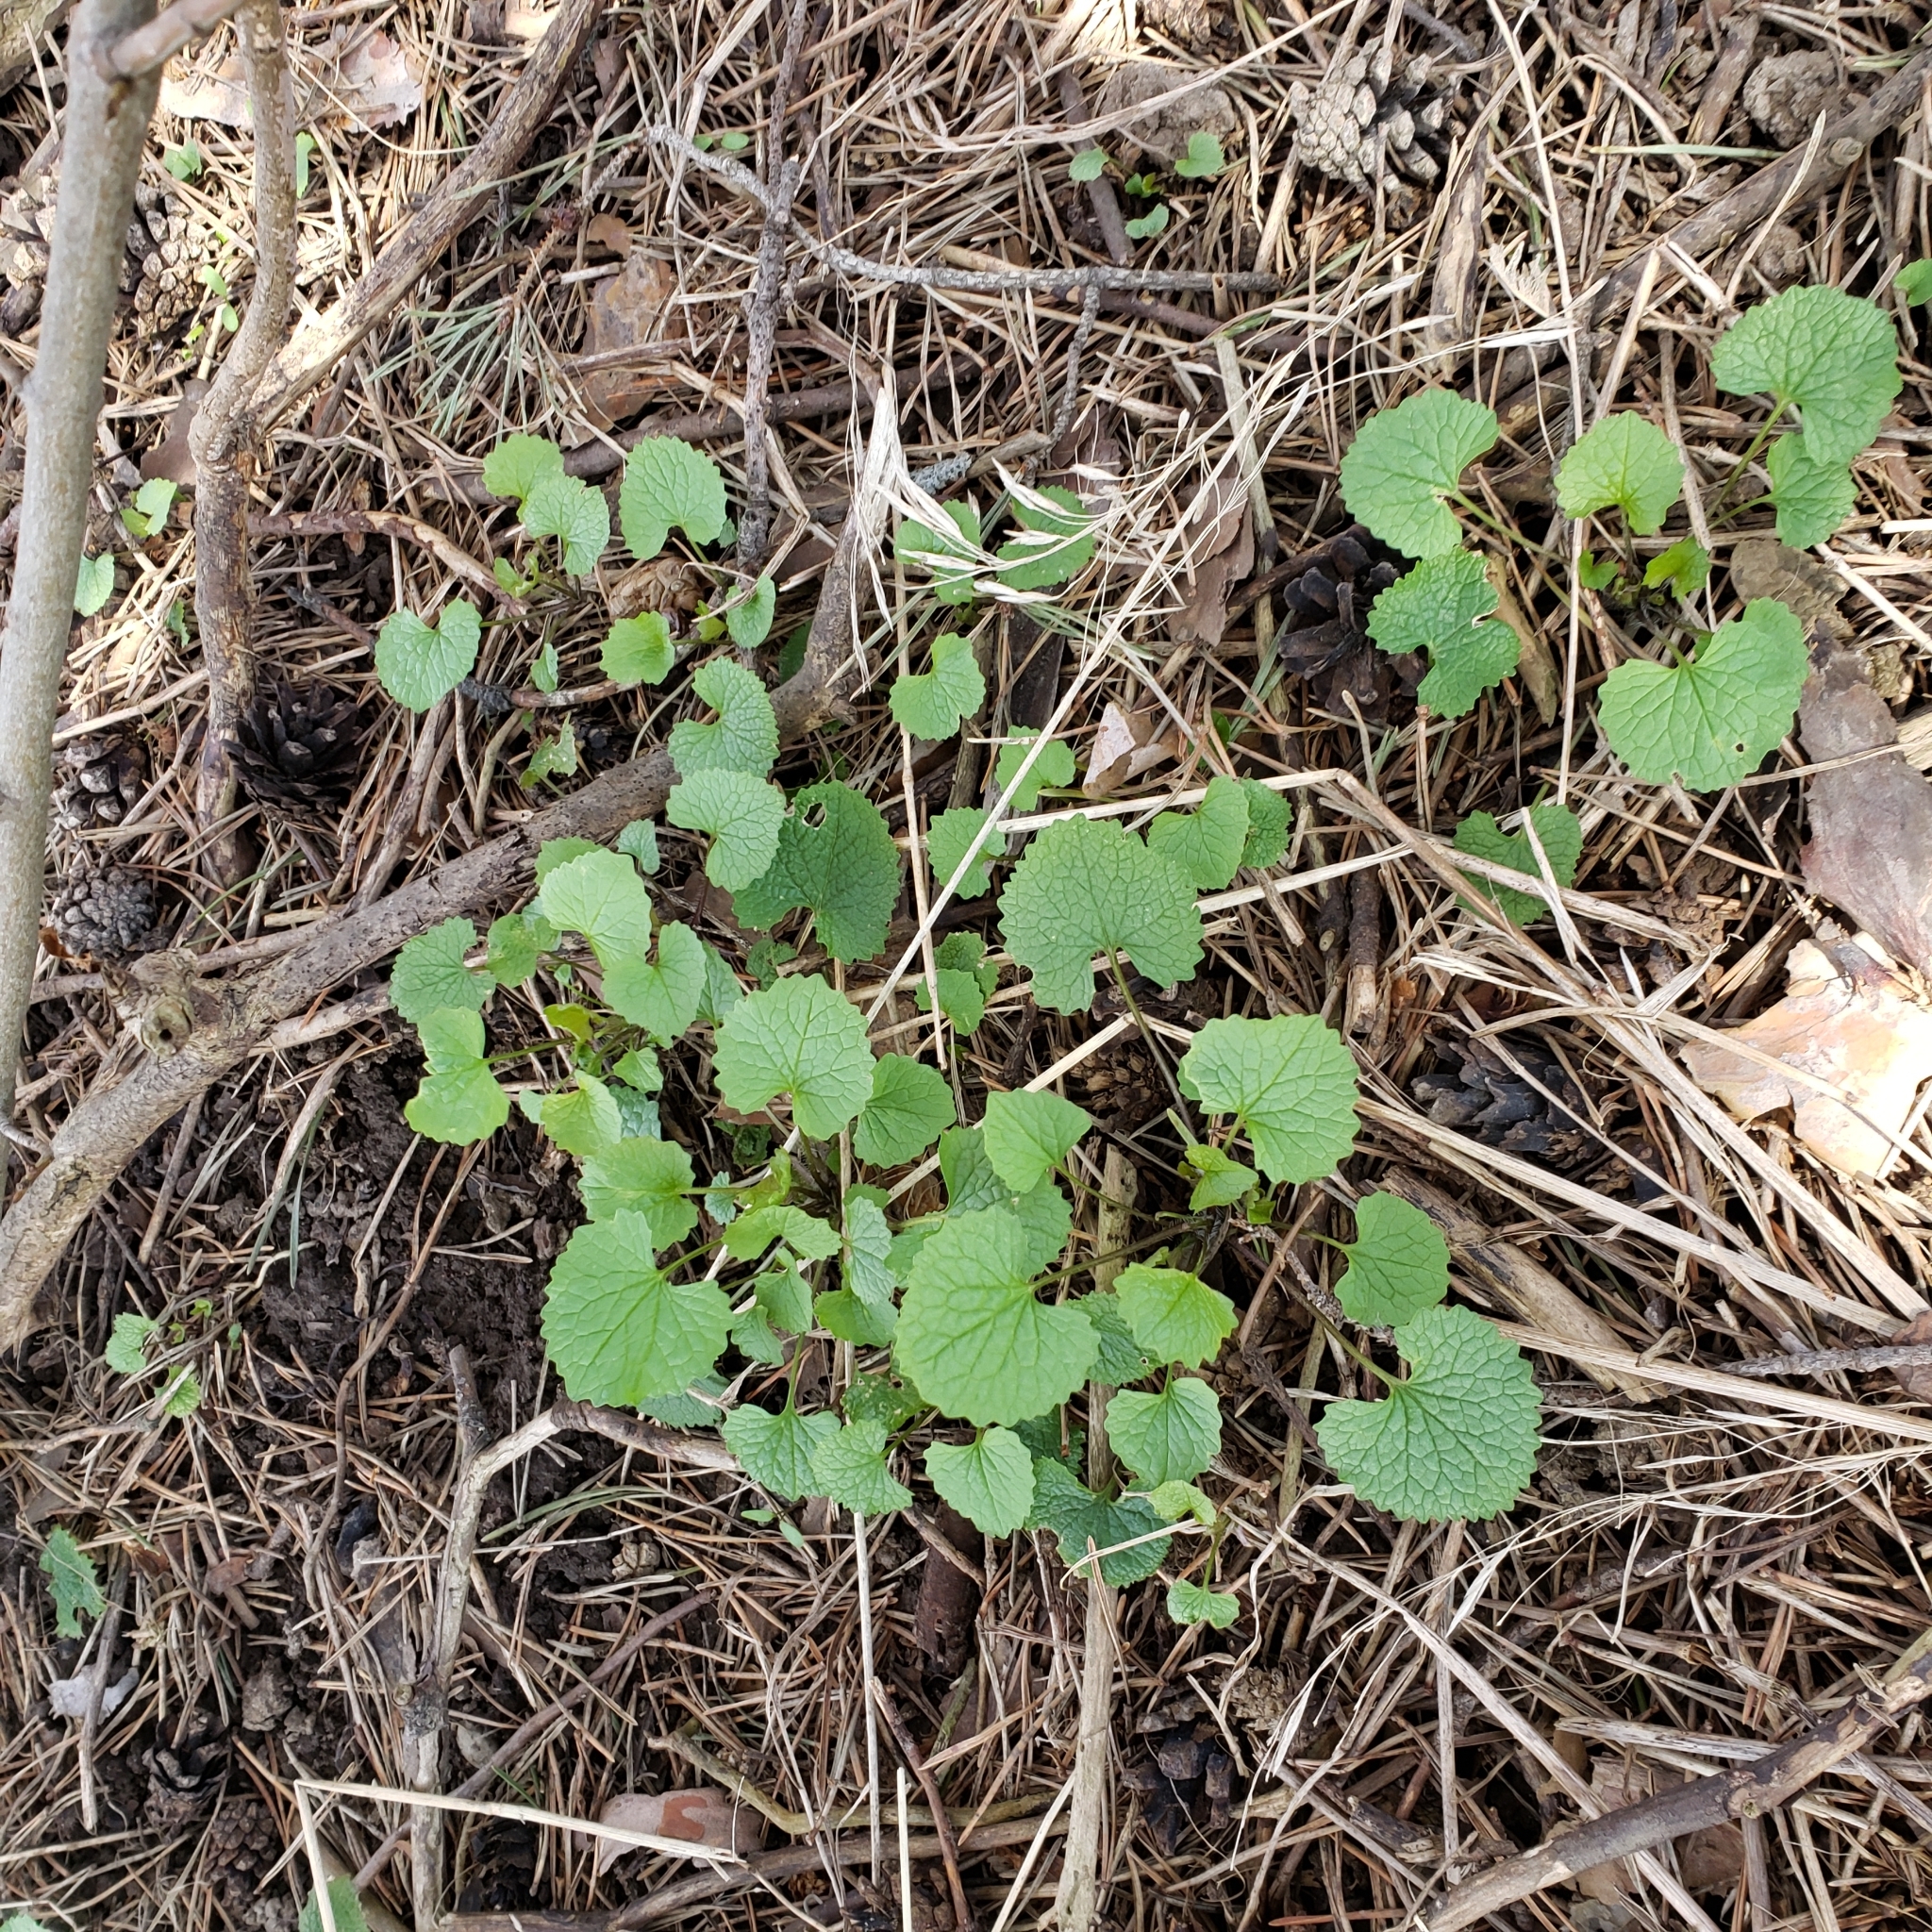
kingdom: Plantae
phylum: Tracheophyta
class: Magnoliopsida
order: Brassicales
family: Brassicaceae
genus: Alliaria
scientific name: Alliaria petiolata
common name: Garlic mustard
